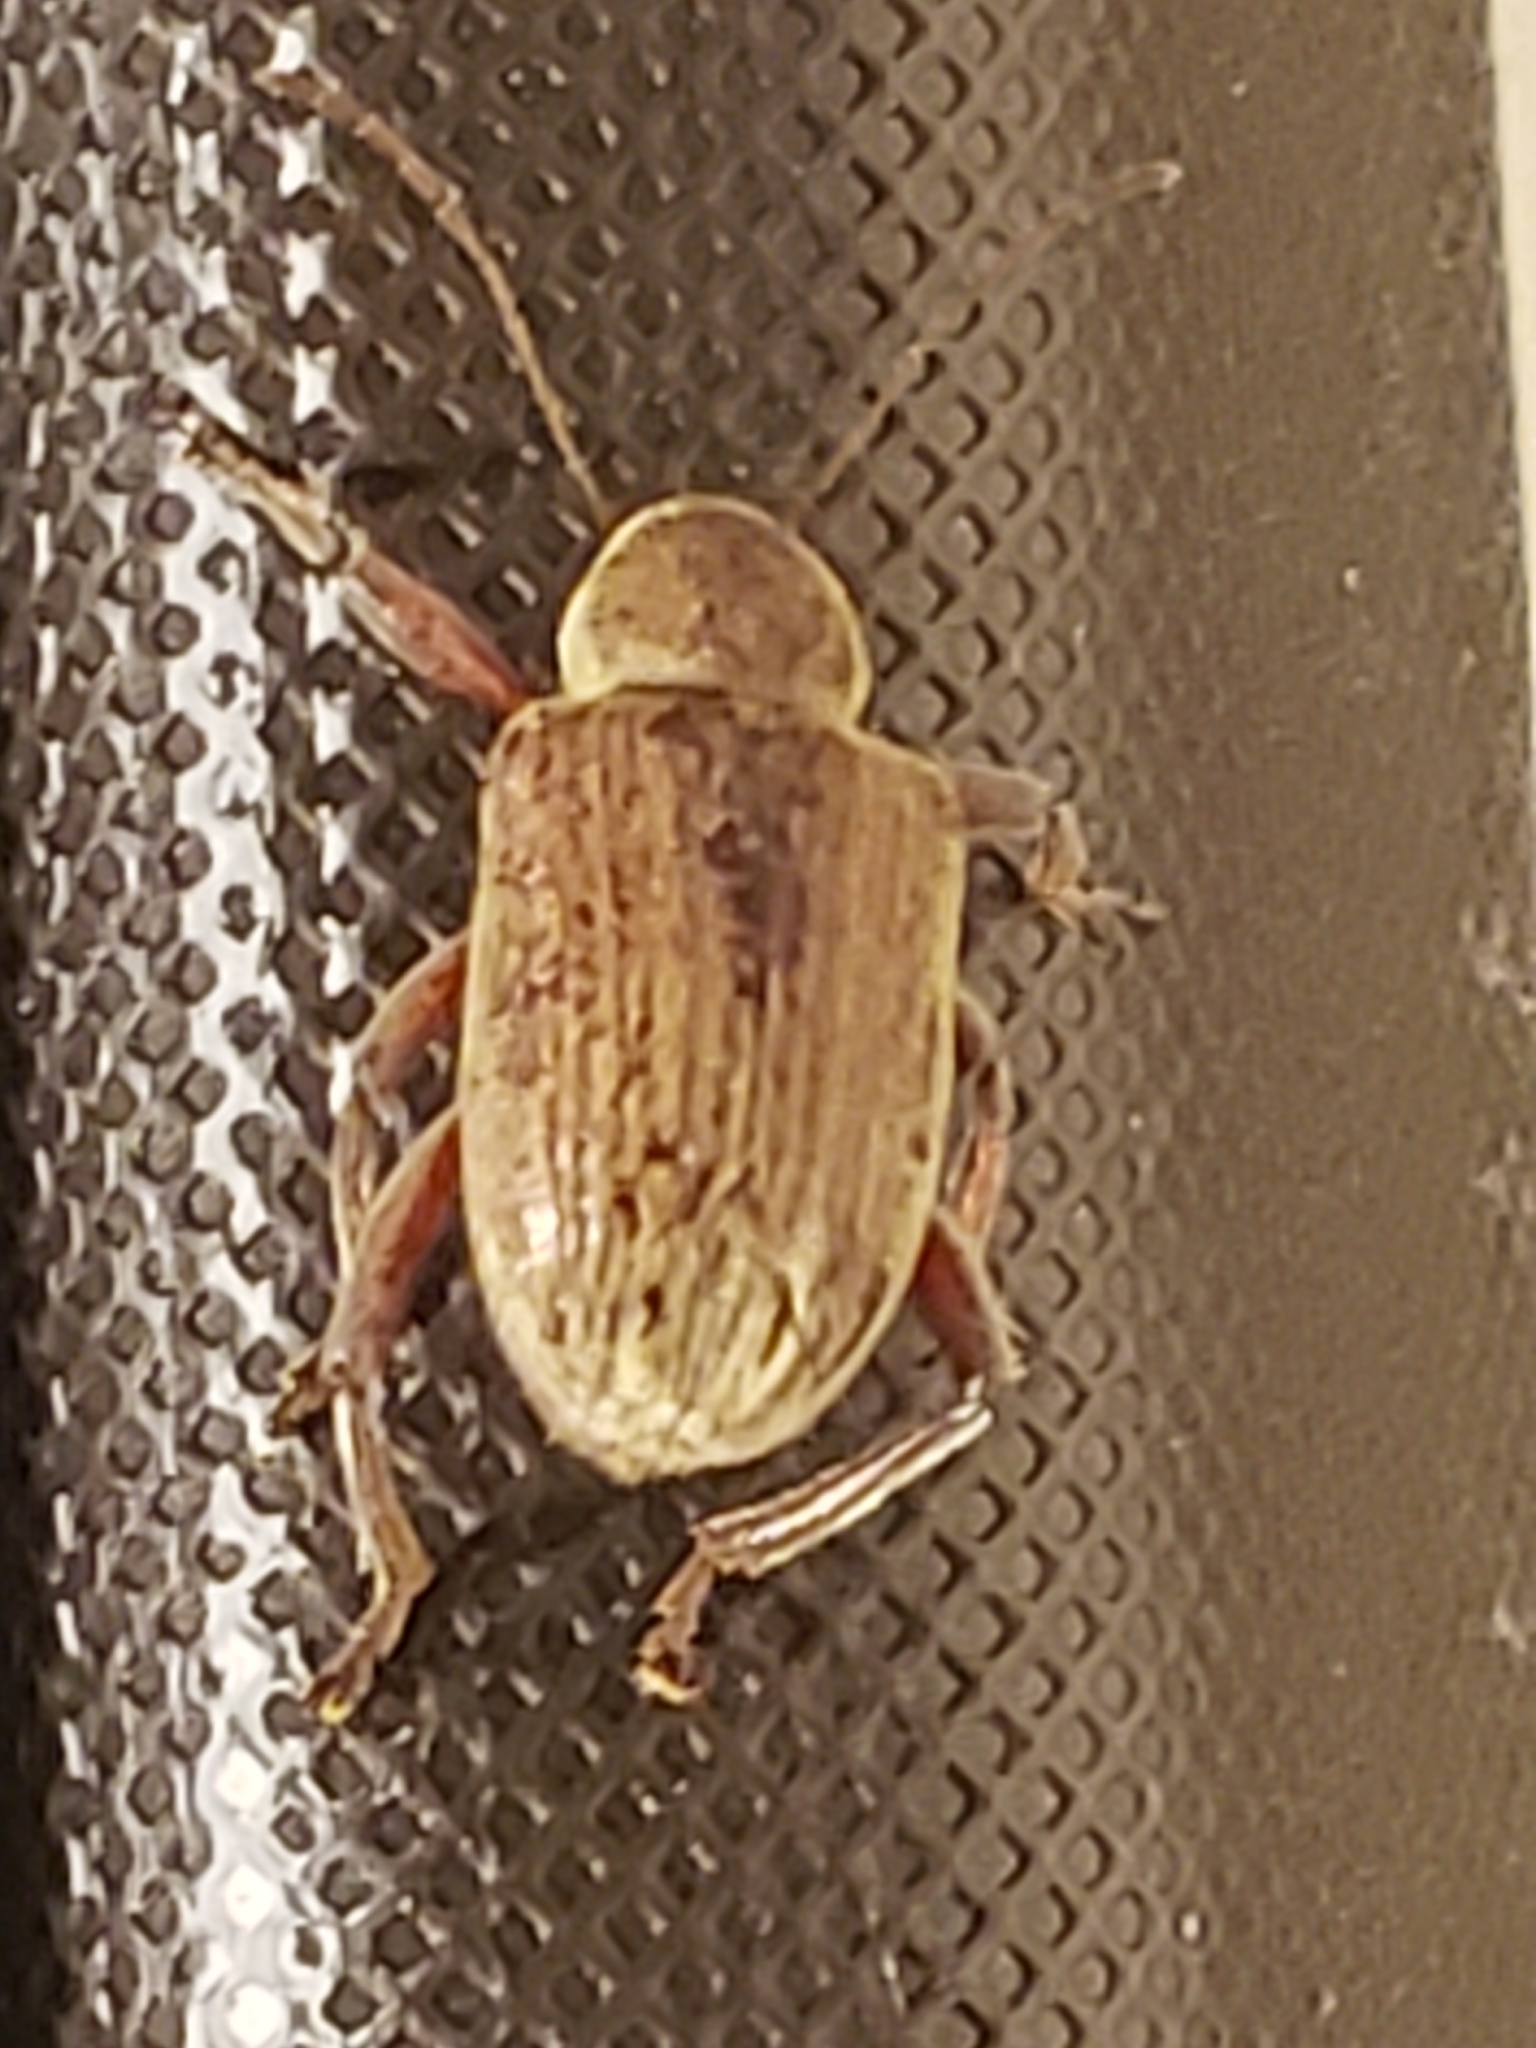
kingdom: Animalia
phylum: Arthropoda
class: Insecta
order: Coleoptera
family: Chrysomelidae
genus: Neofidia
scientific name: Neofidia
